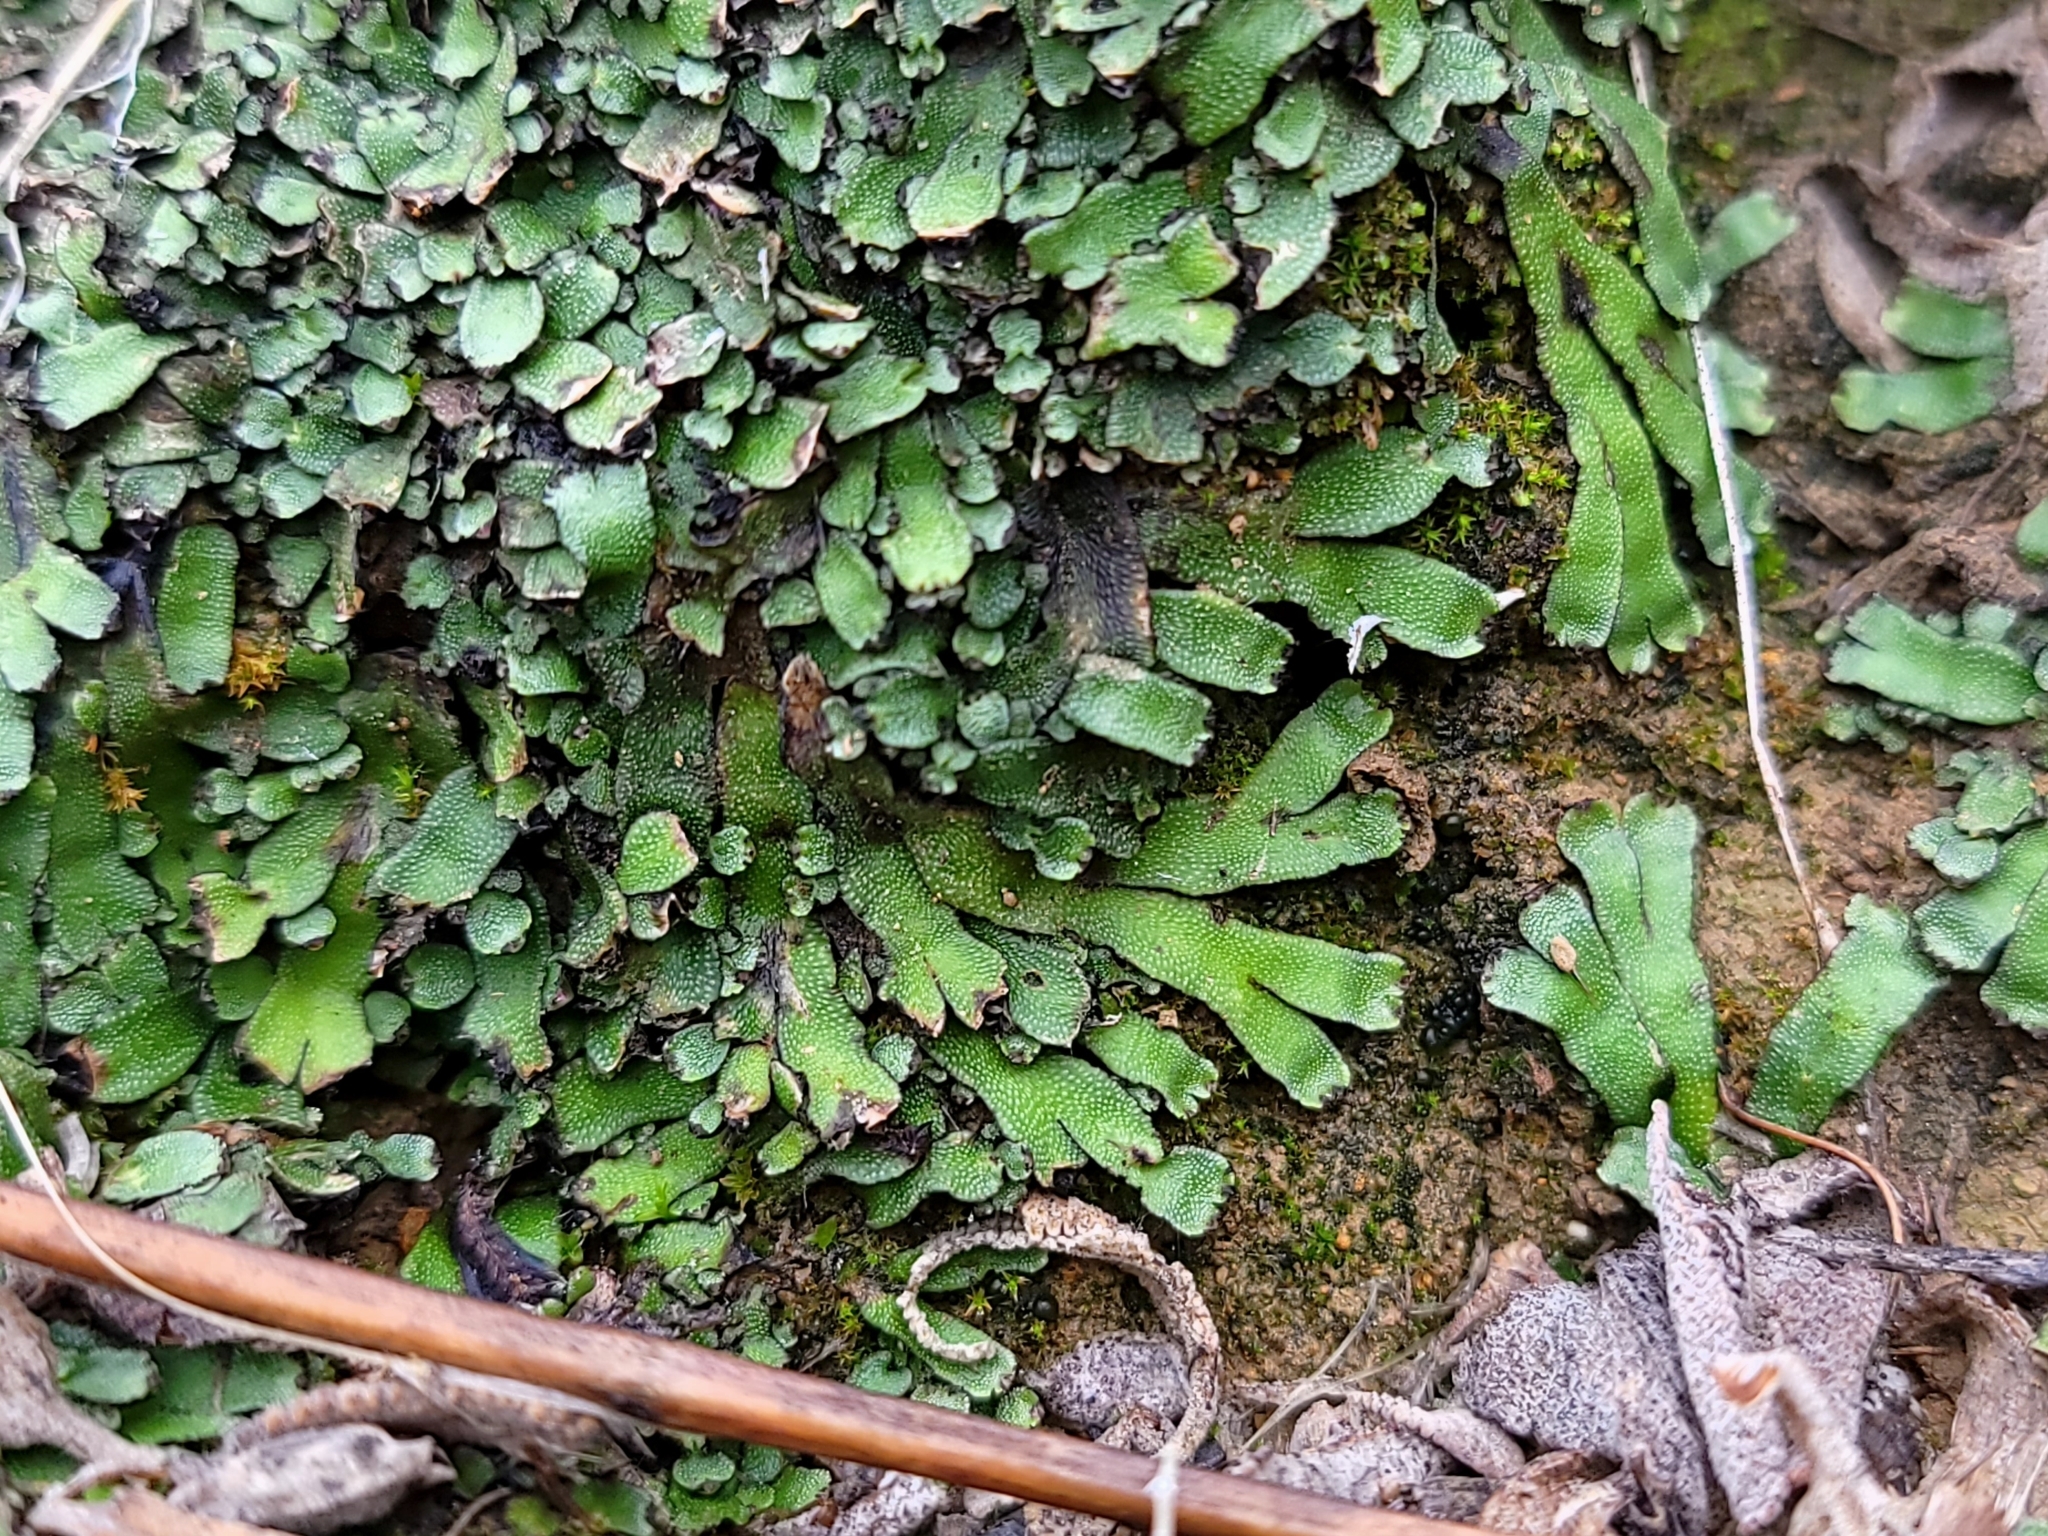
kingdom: Plantae
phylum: Marchantiophyta
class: Marchantiopsida
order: Marchantiales
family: Targioniaceae
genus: Targionia
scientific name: Targionia hypophylla
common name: Orobus-seed liverwort
